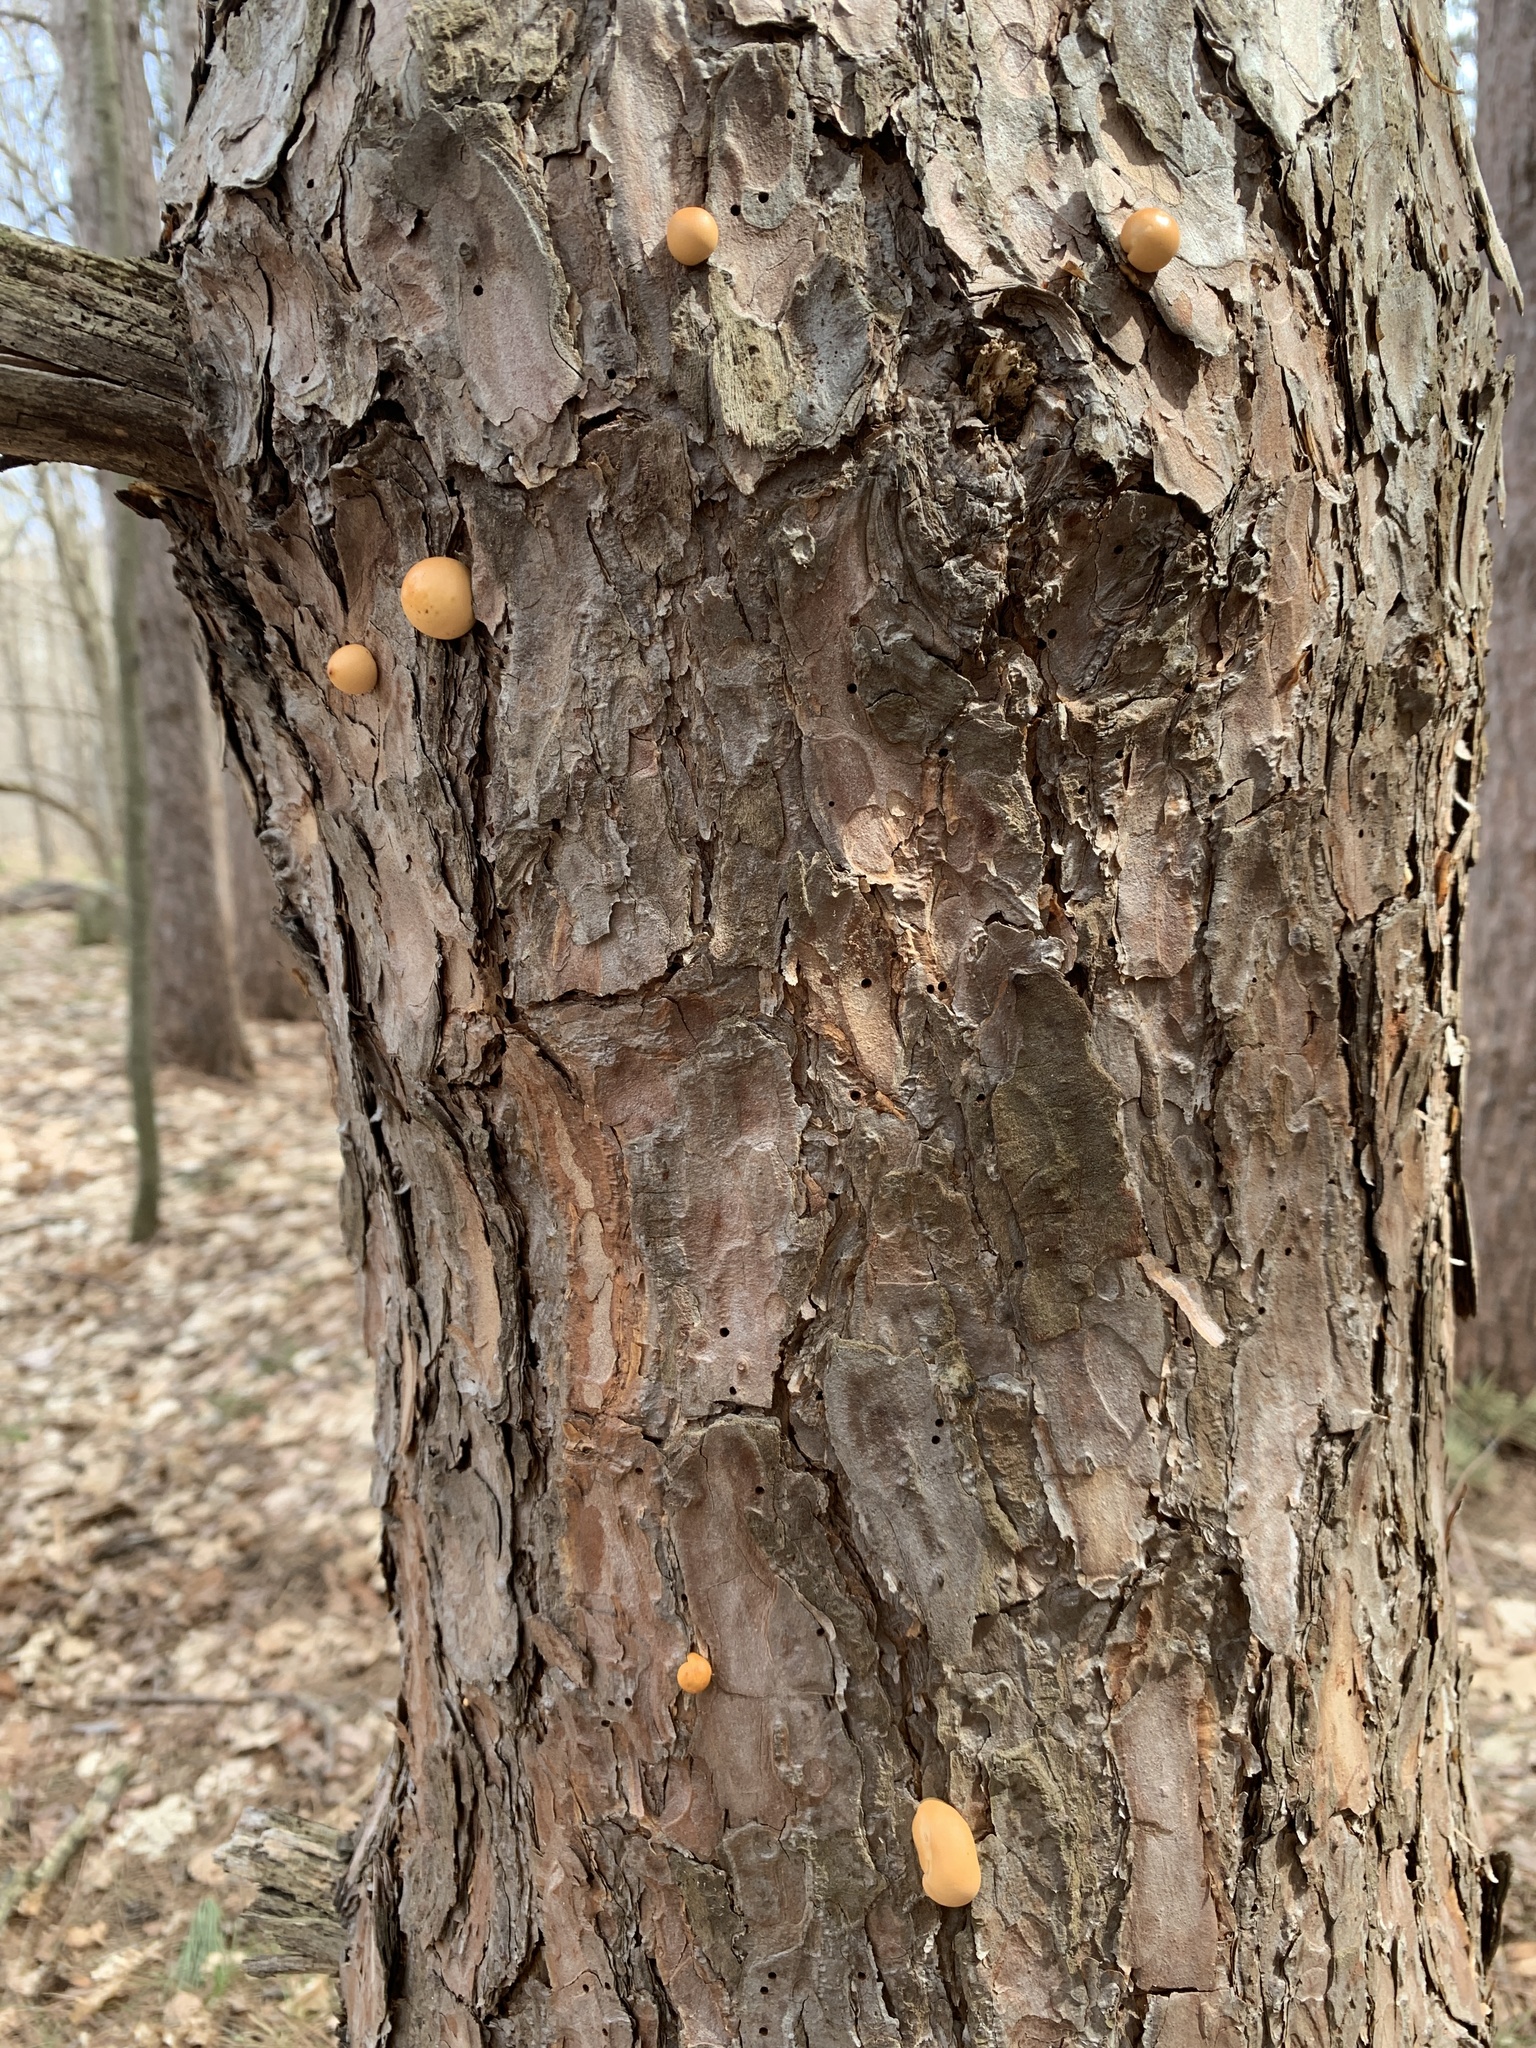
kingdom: Fungi
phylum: Basidiomycota
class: Agaricomycetes
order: Polyporales
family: Polyporaceae
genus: Cryptoporus
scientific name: Cryptoporus volvatus
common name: Veiled polypore
